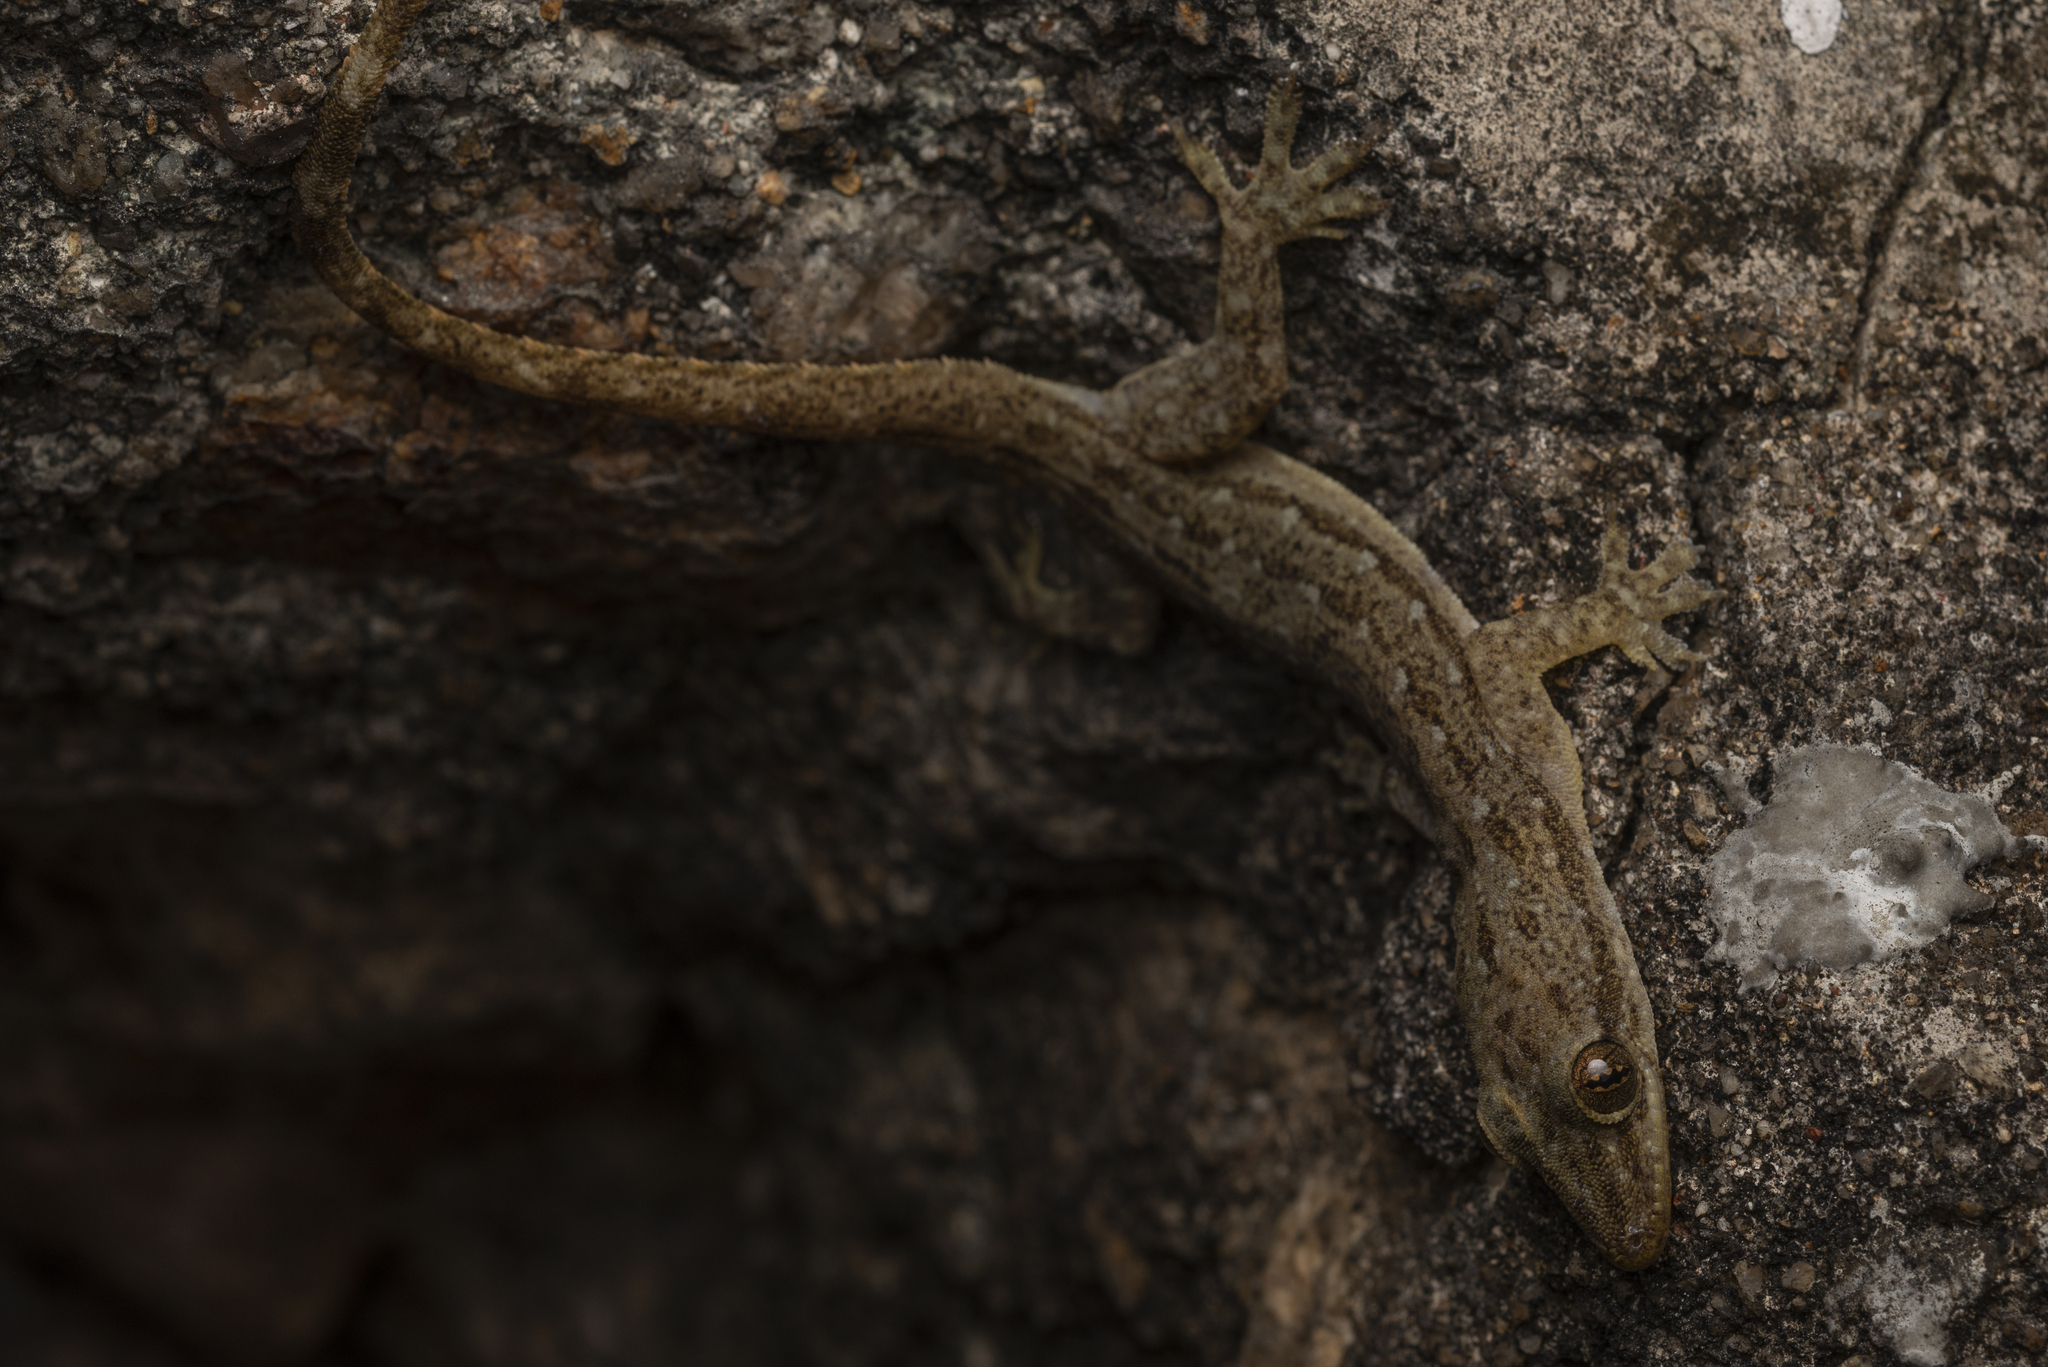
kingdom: Animalia
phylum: Chordata
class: Squamata
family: Gekkonidae
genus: Hemidactylus
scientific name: Hemidactylus garnotii
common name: Indo-pacific gecko
